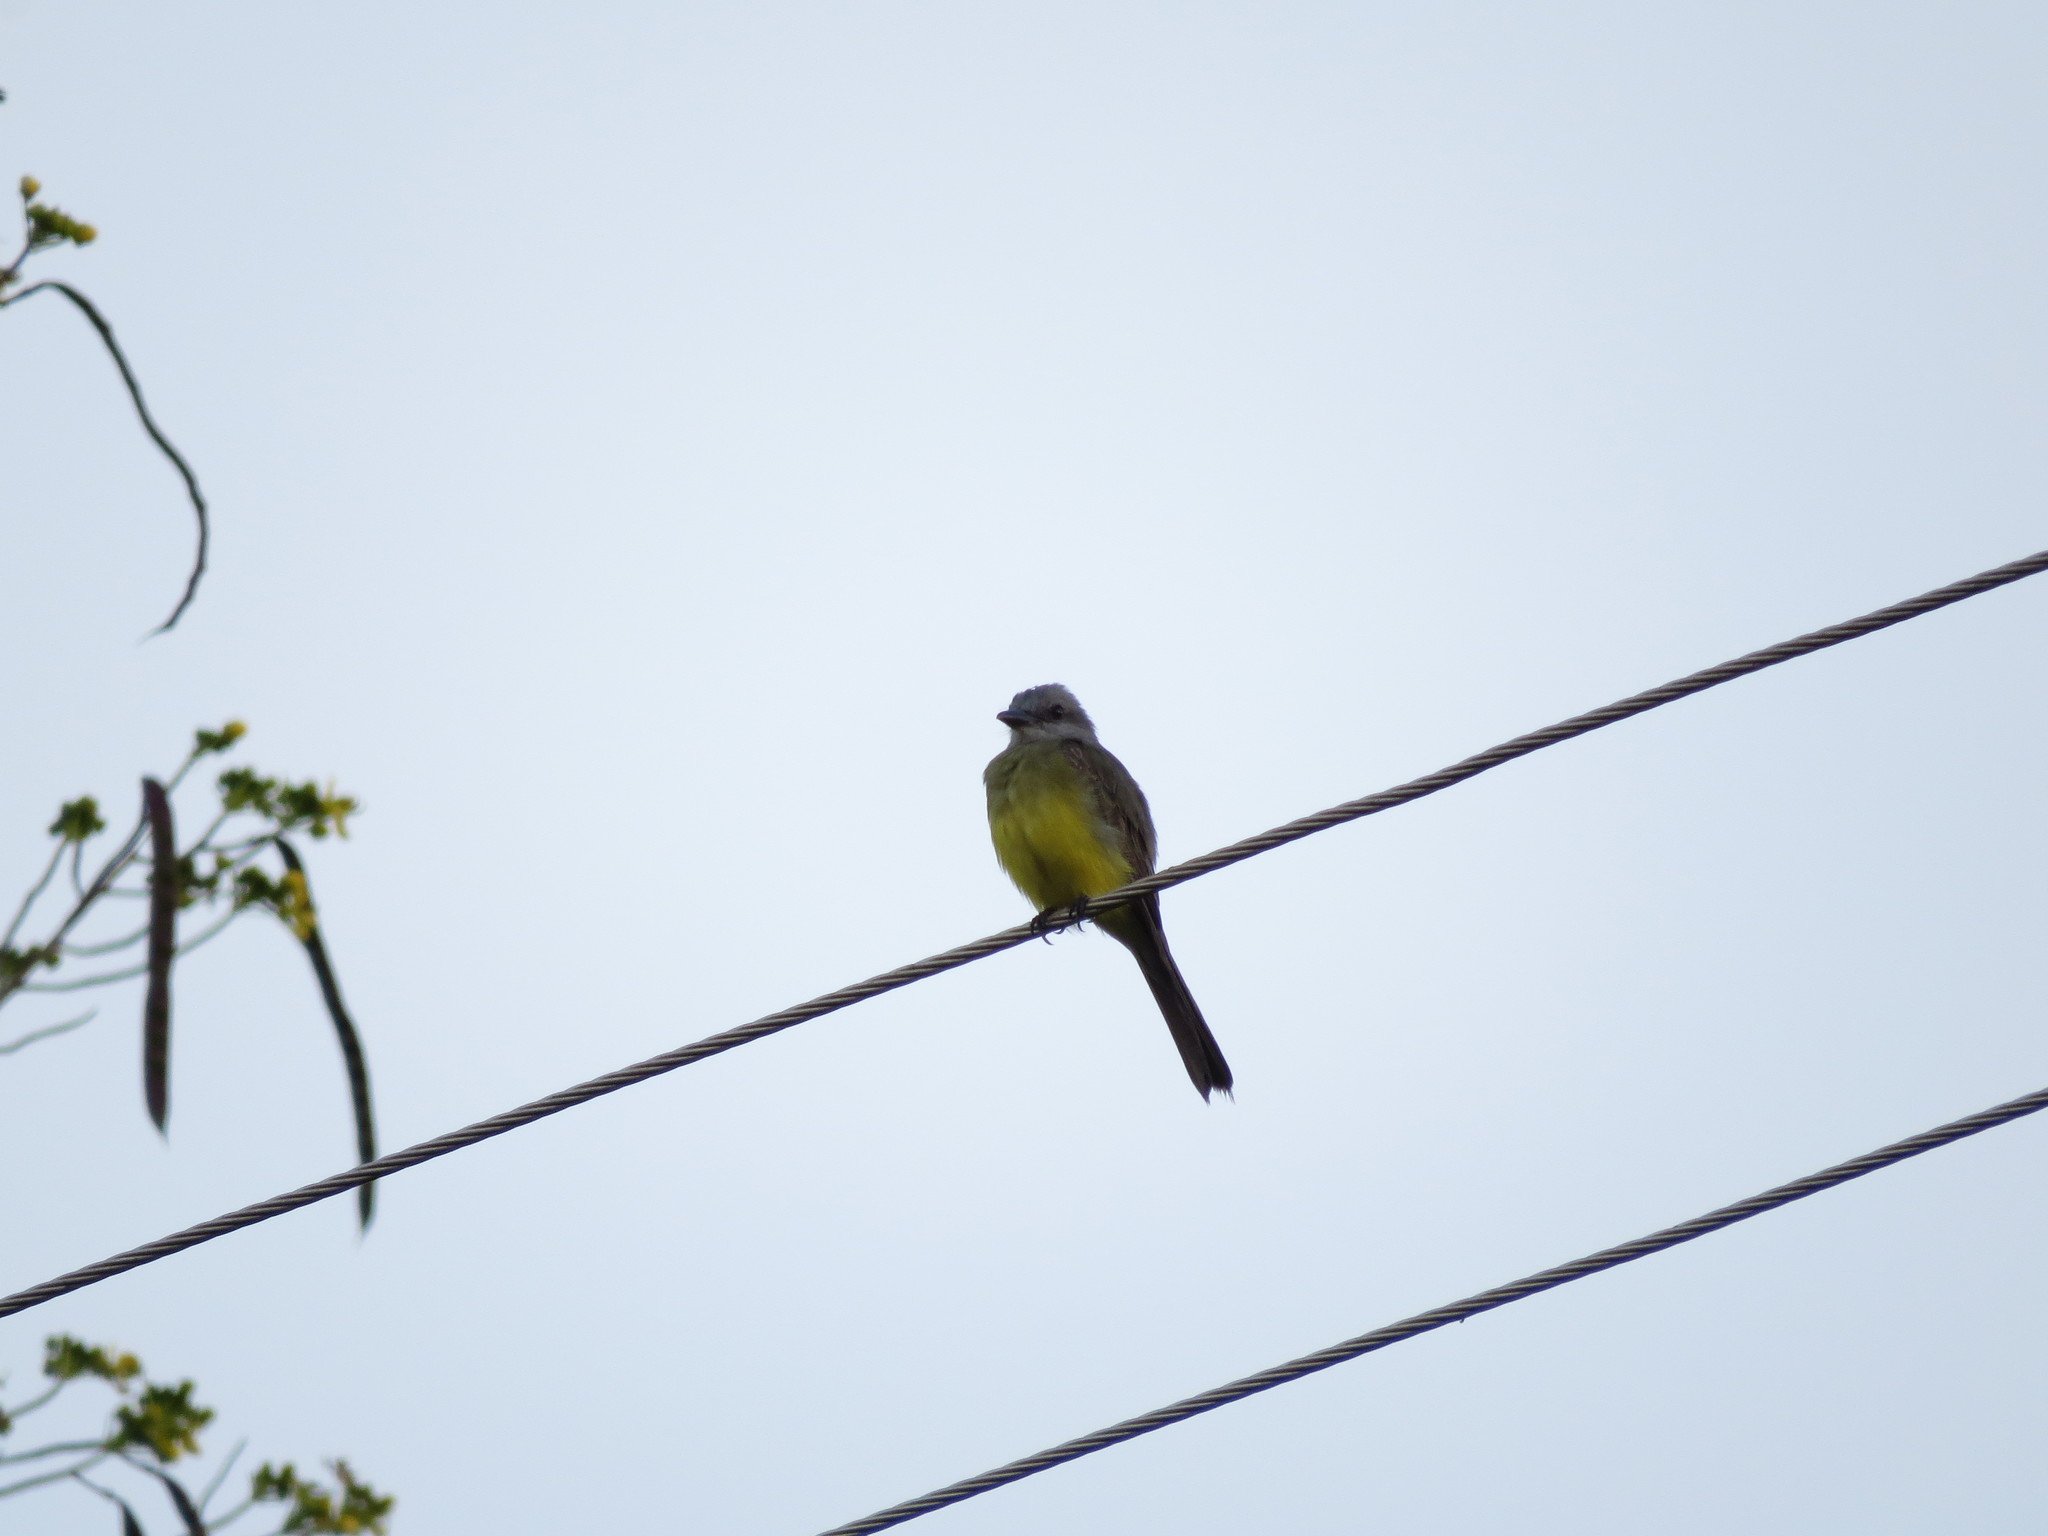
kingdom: Animalia
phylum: Chordata
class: Aves
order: Passeriformes
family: Tyrannidae
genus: Tyrannus
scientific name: Tyrannus melancholicus
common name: Tropical kingbird
